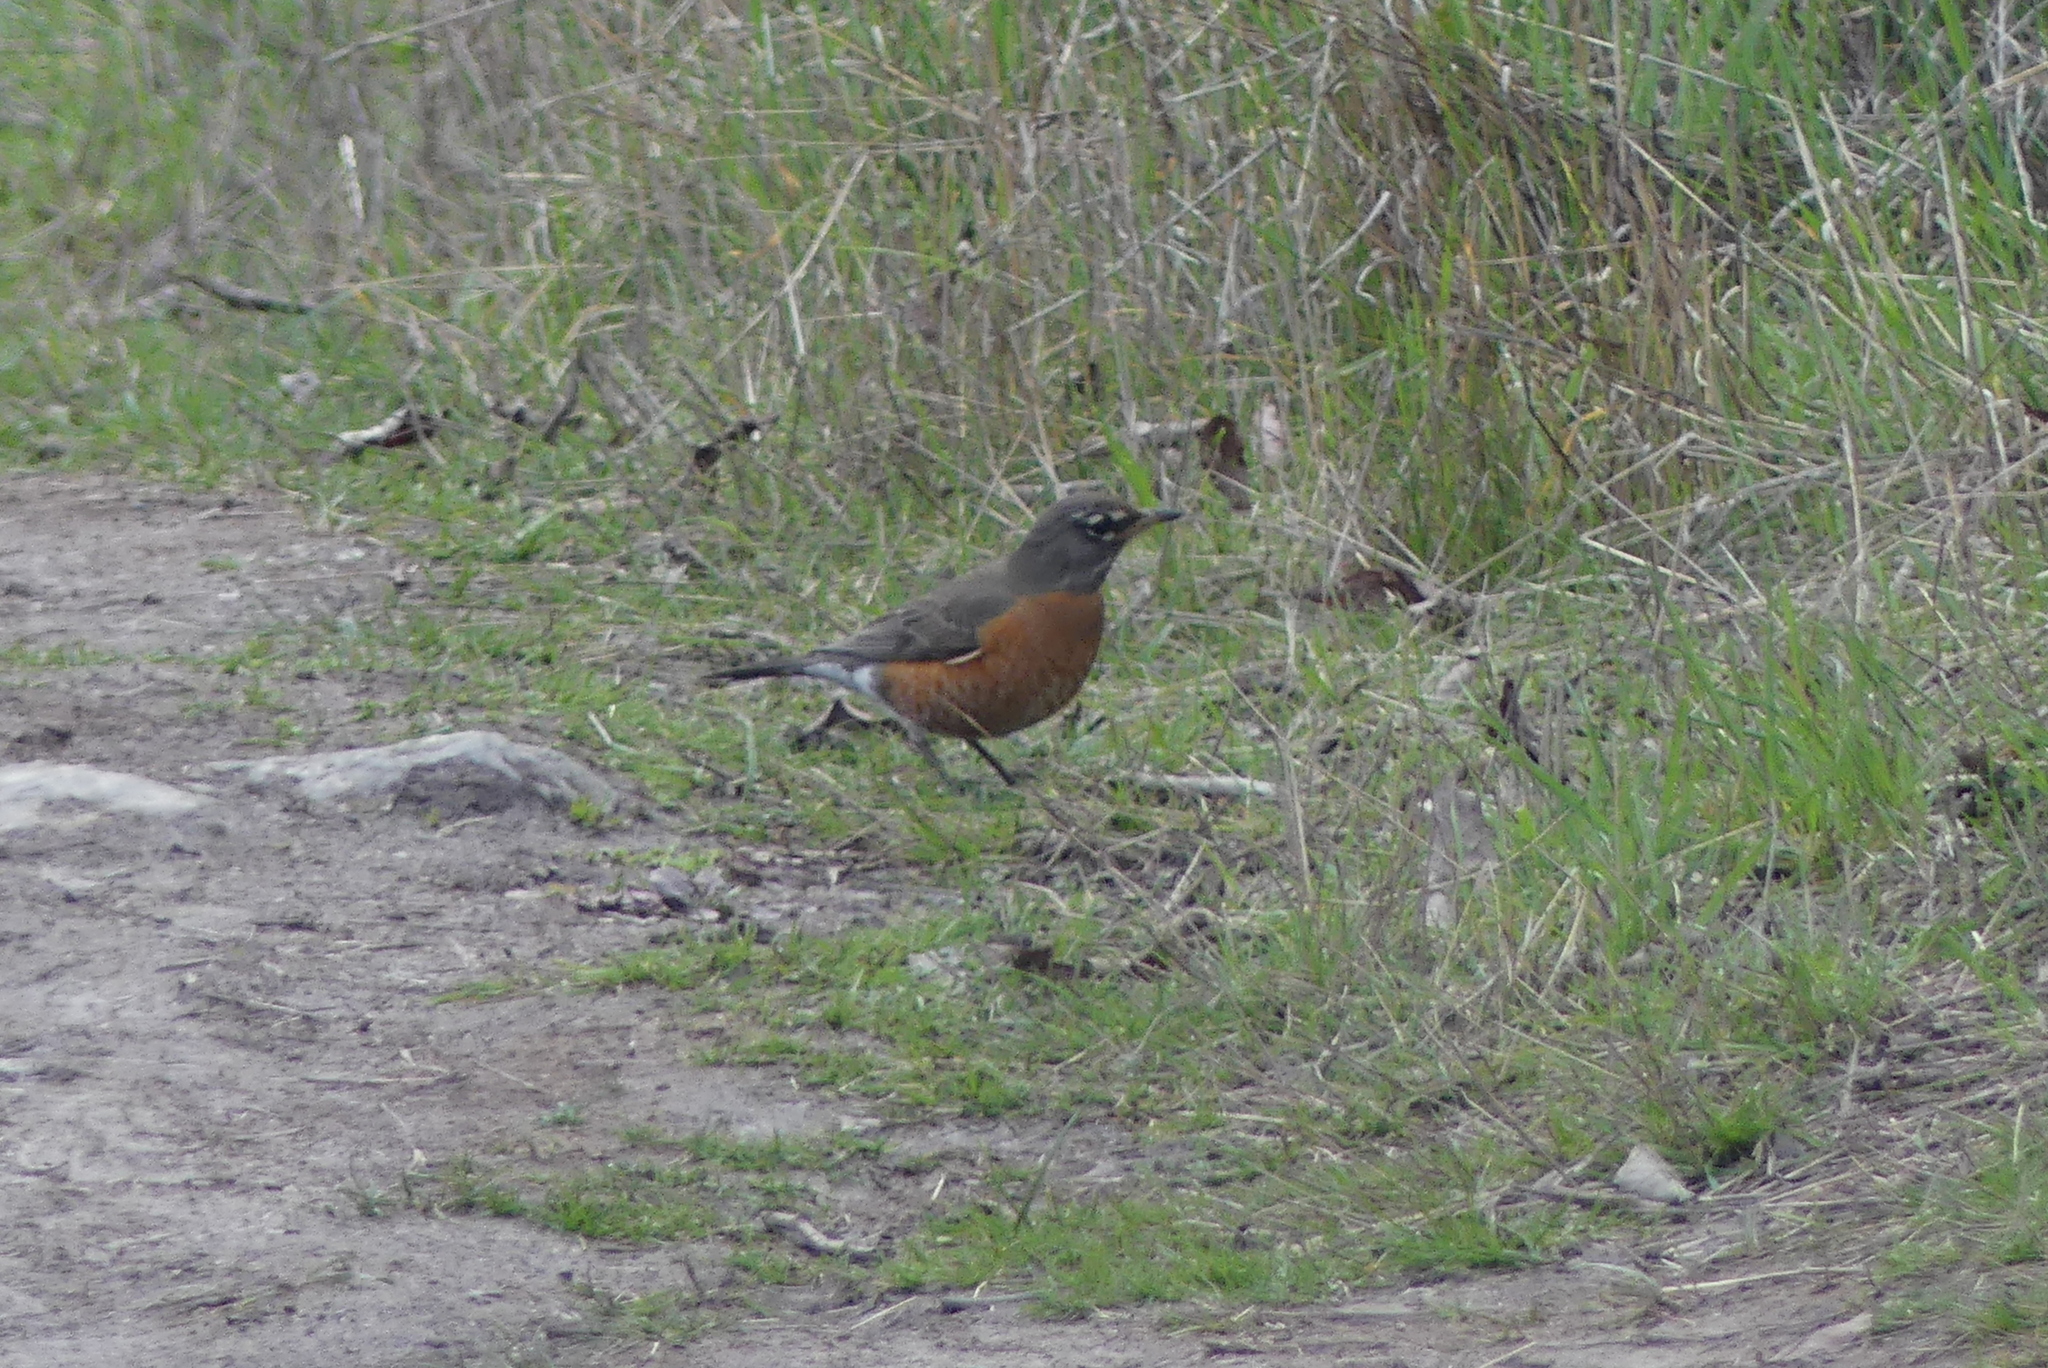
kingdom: Animalia
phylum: Chordata
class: Aves
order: Passeriformes
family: Turdidae
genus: Turdus
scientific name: Turdus migratorius
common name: American robin
